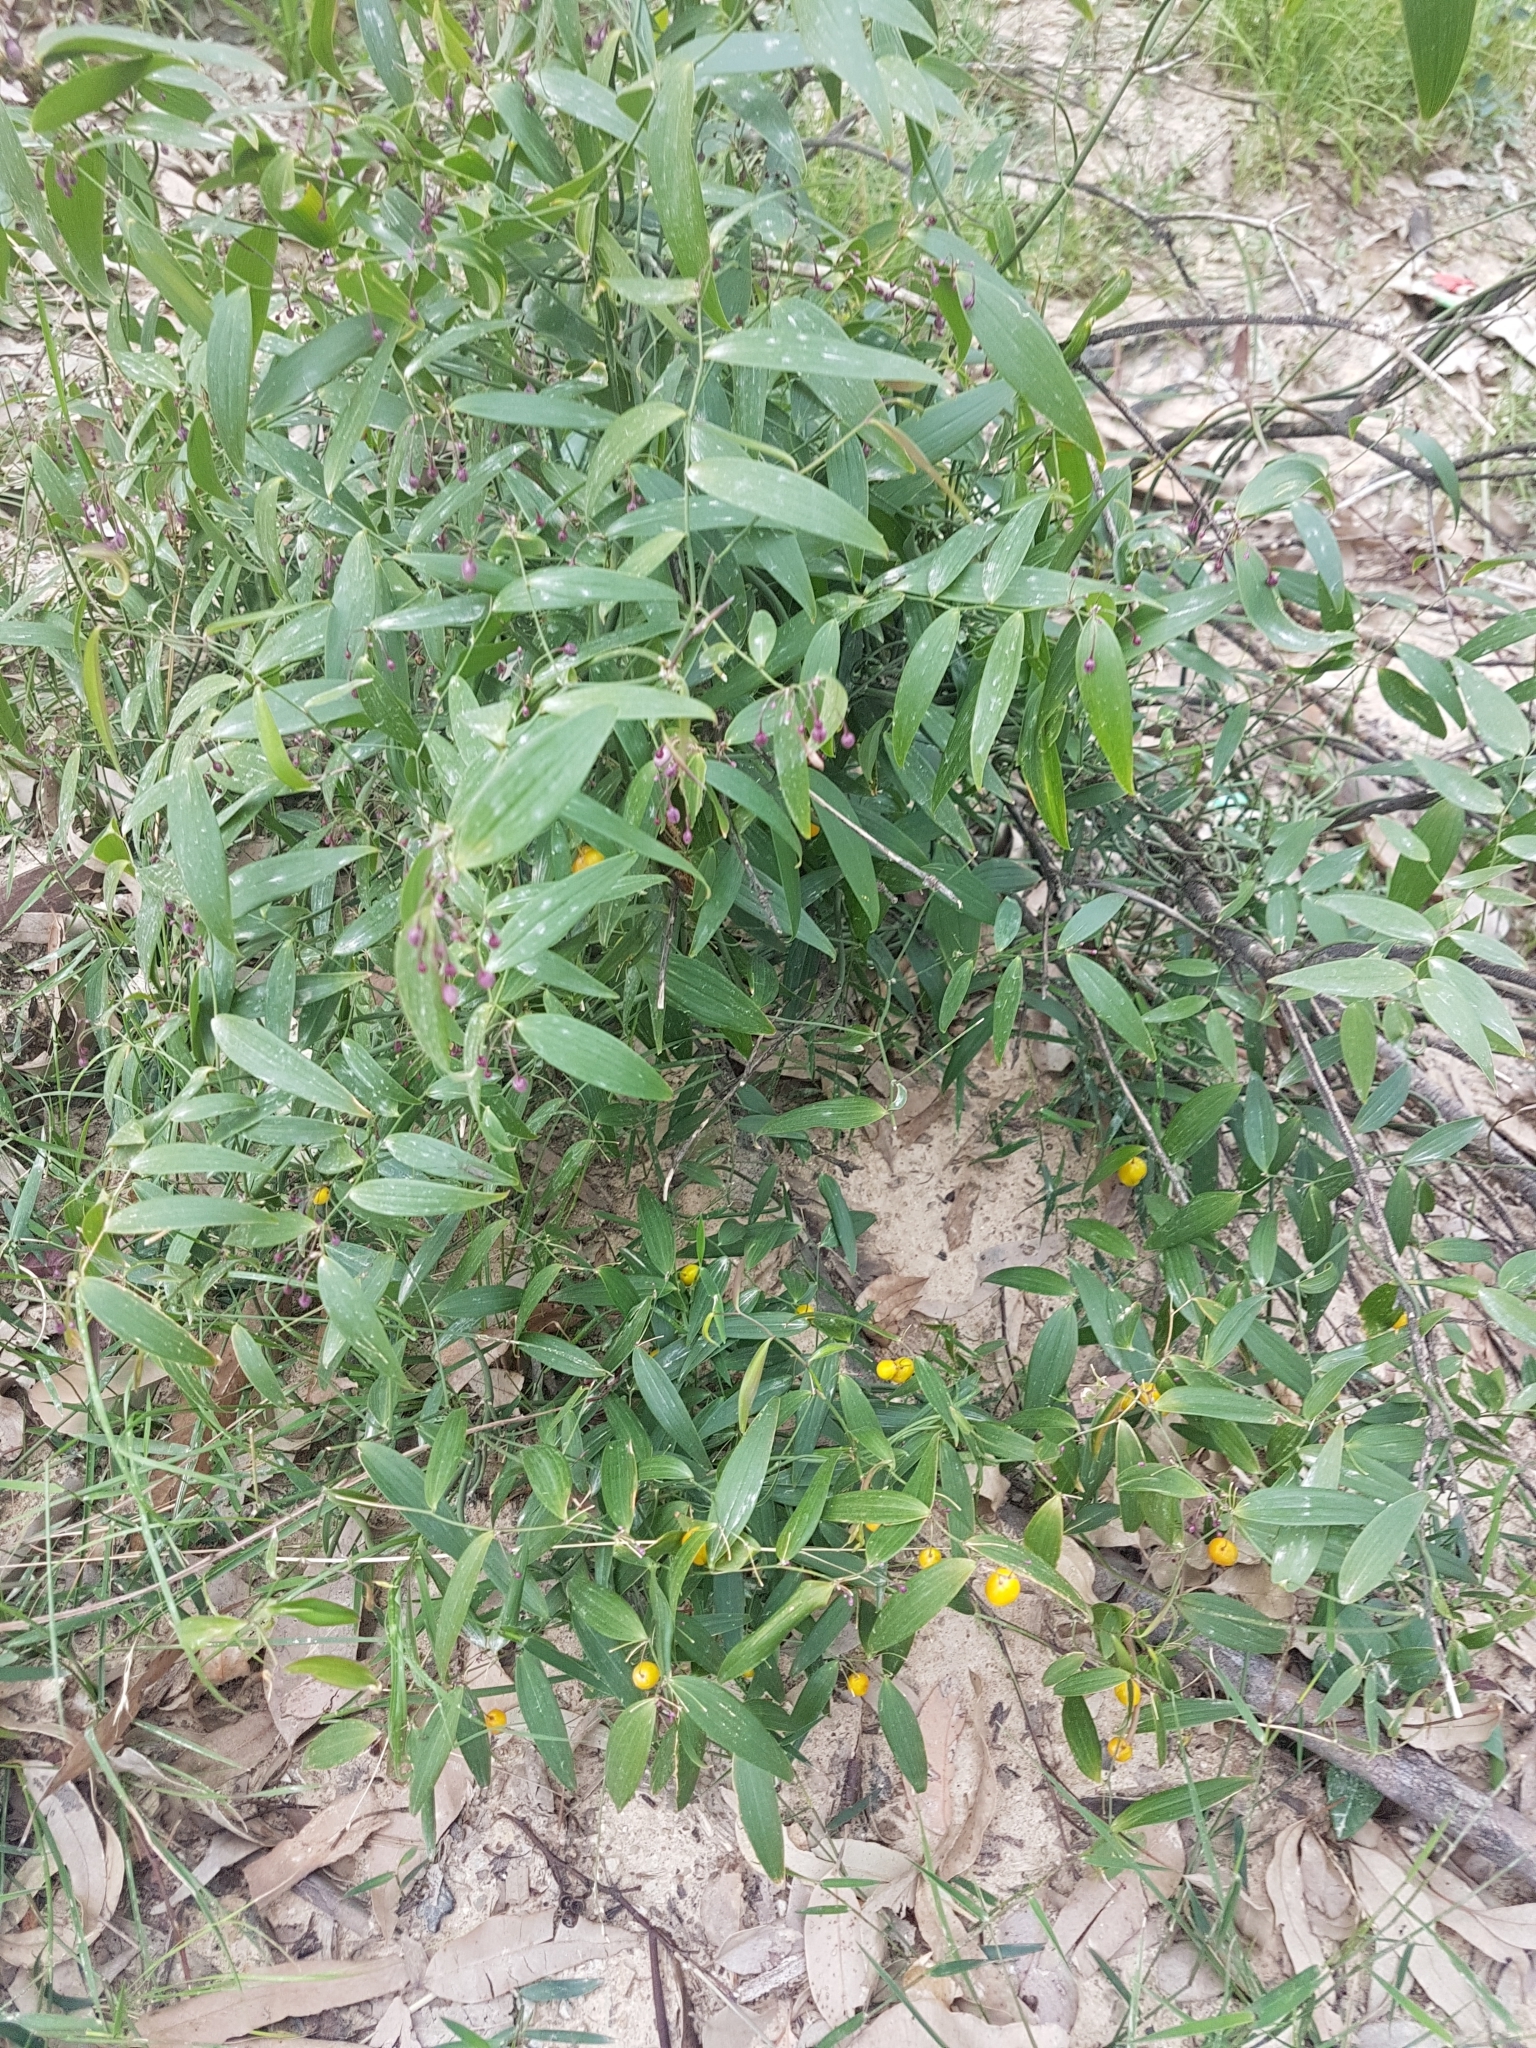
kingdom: Plantae
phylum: Tracheophyta
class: Liliopsida
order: Asparagales
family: Asparagaceae
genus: Eustrephus
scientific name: Eustrephus latifolius
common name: Orangevine
